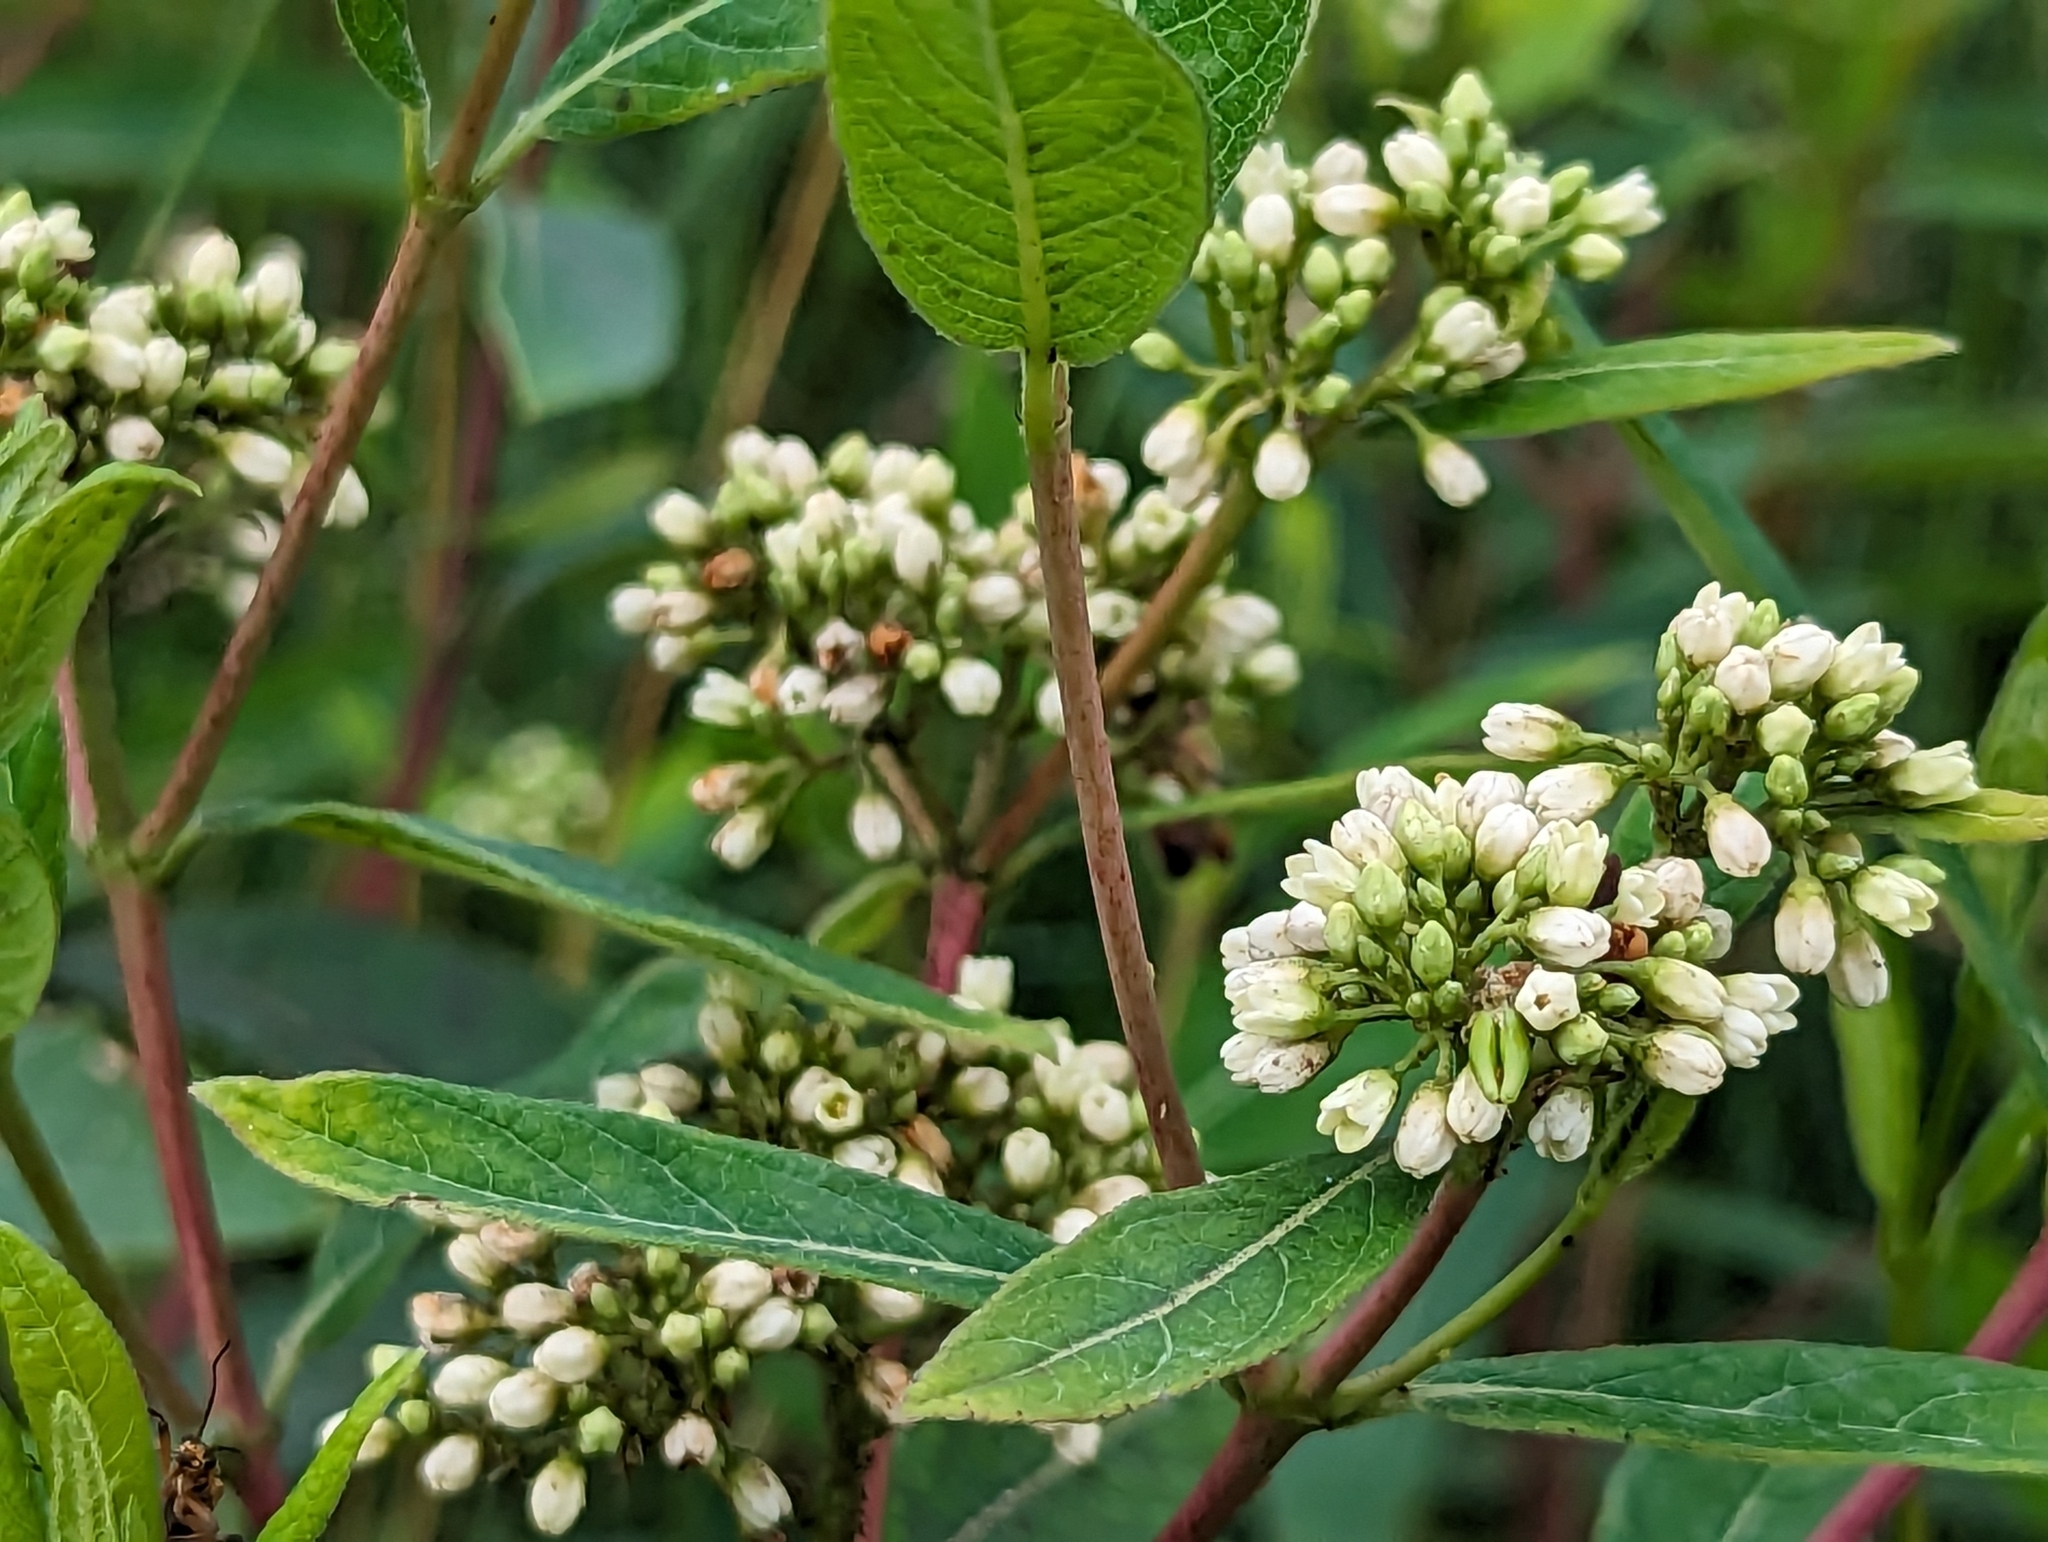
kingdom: Plantae
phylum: Tracheophyta
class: Magnoliopsida
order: Gentianales
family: Apocynaceae
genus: Apocynum
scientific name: Apocynum cannabinum
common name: Hemp dogbane
